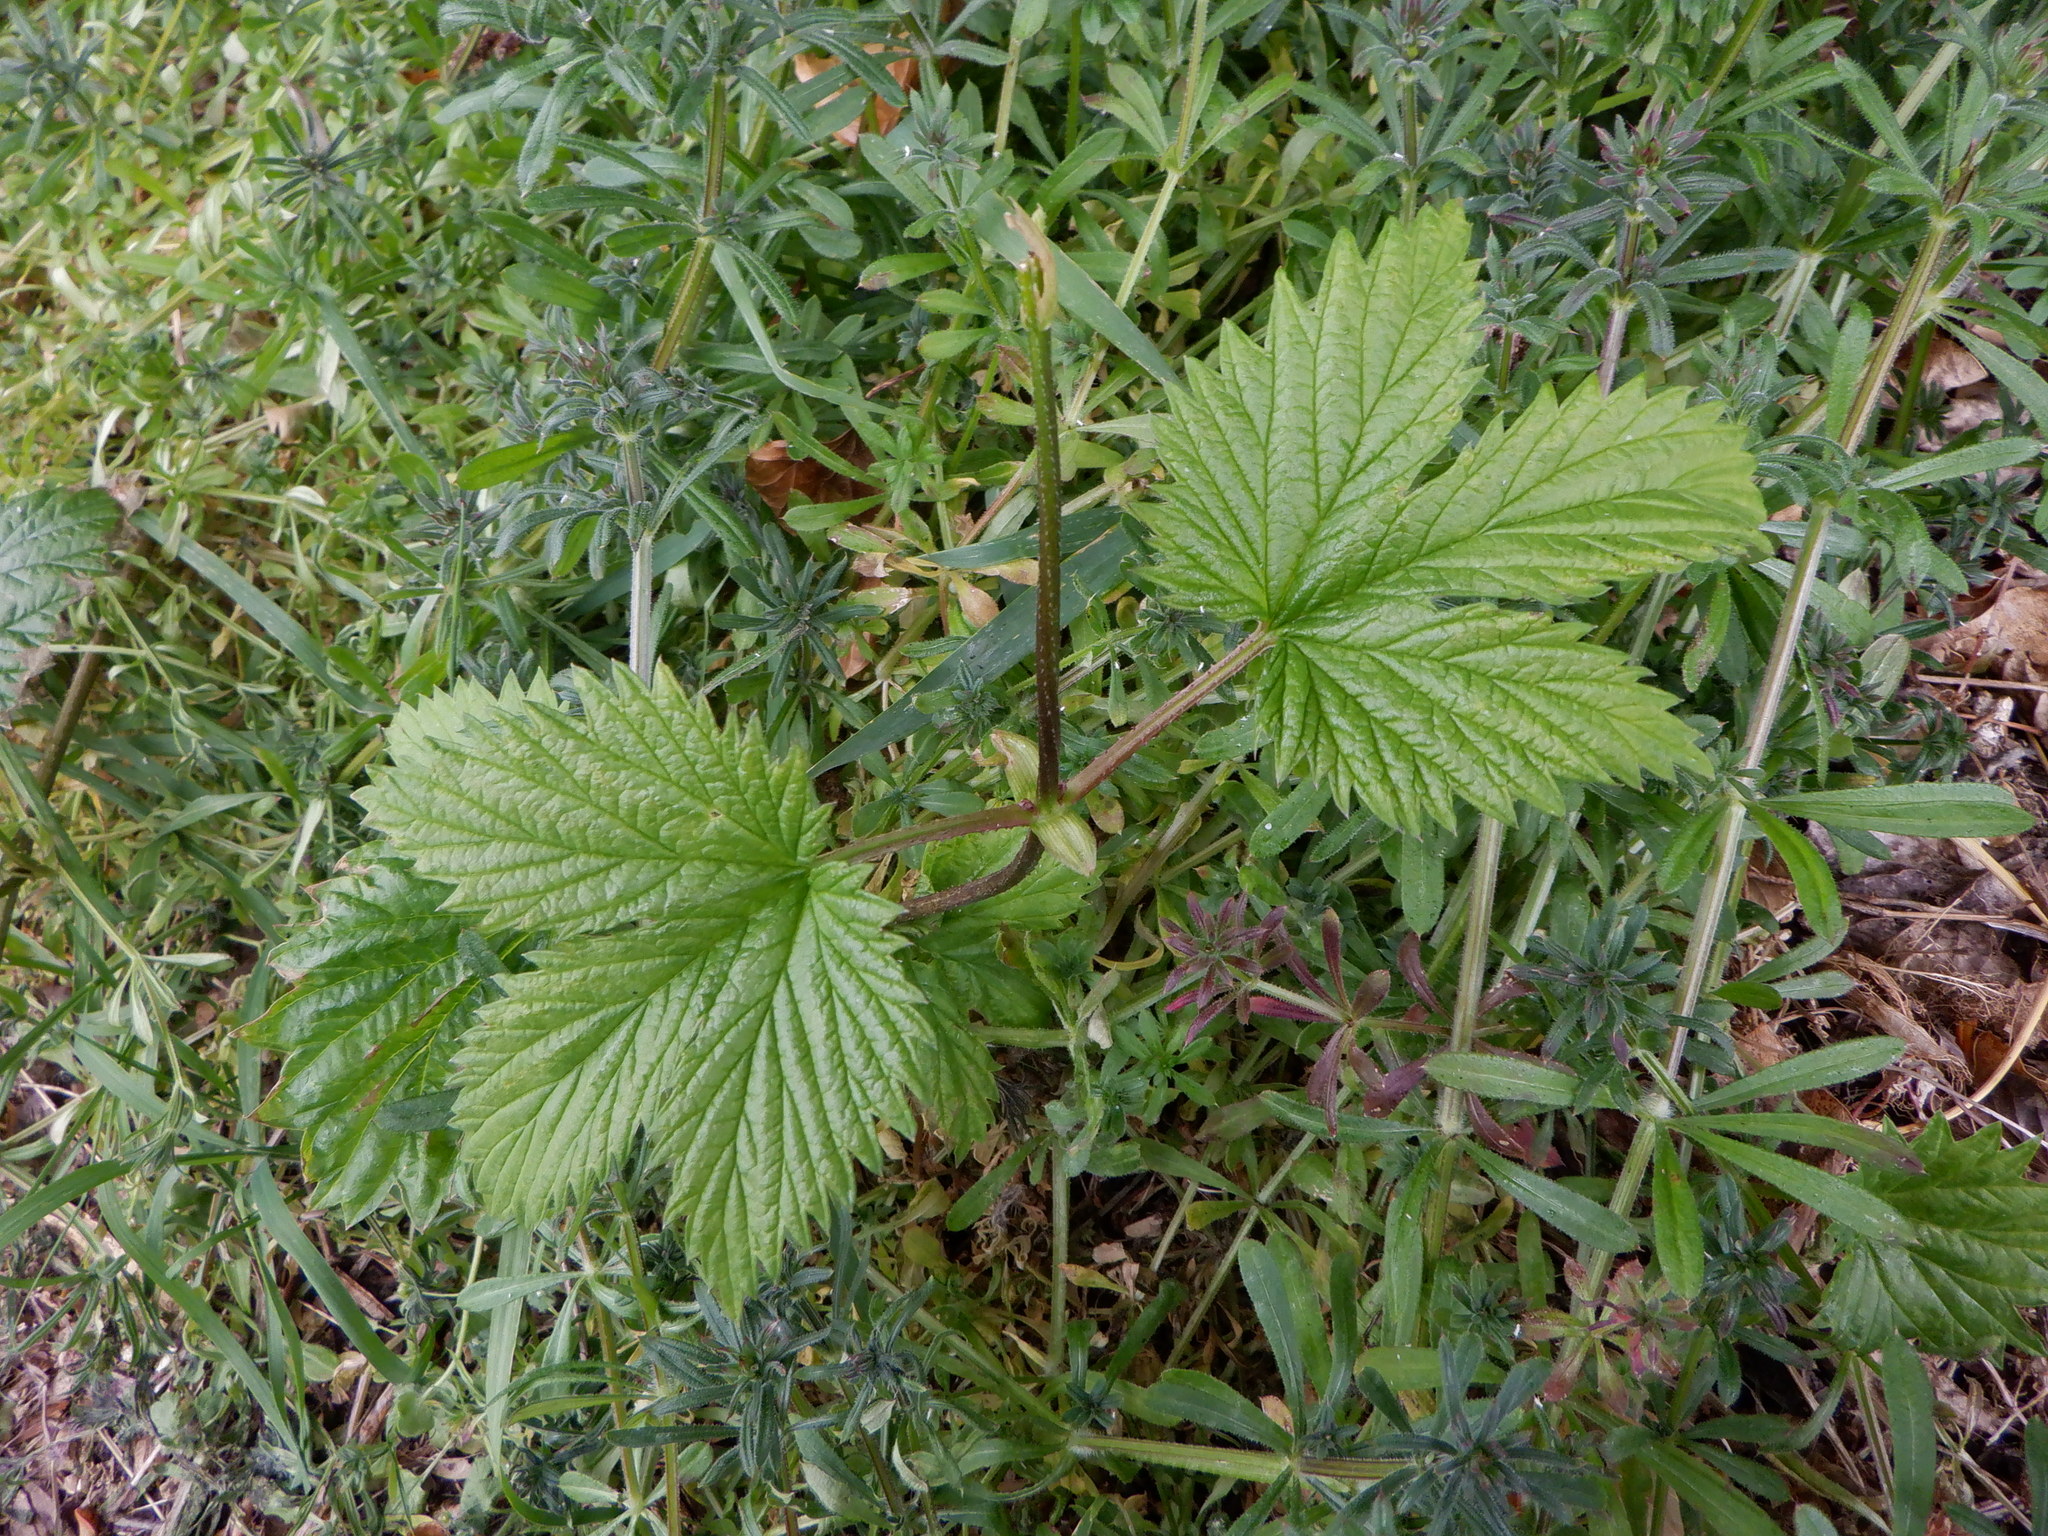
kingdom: Plantae
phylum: Tracheophyta
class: Magnoliopsida
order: Rosales
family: Cannabaceae
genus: Humulus
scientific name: Humulus lupulus
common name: Hop
